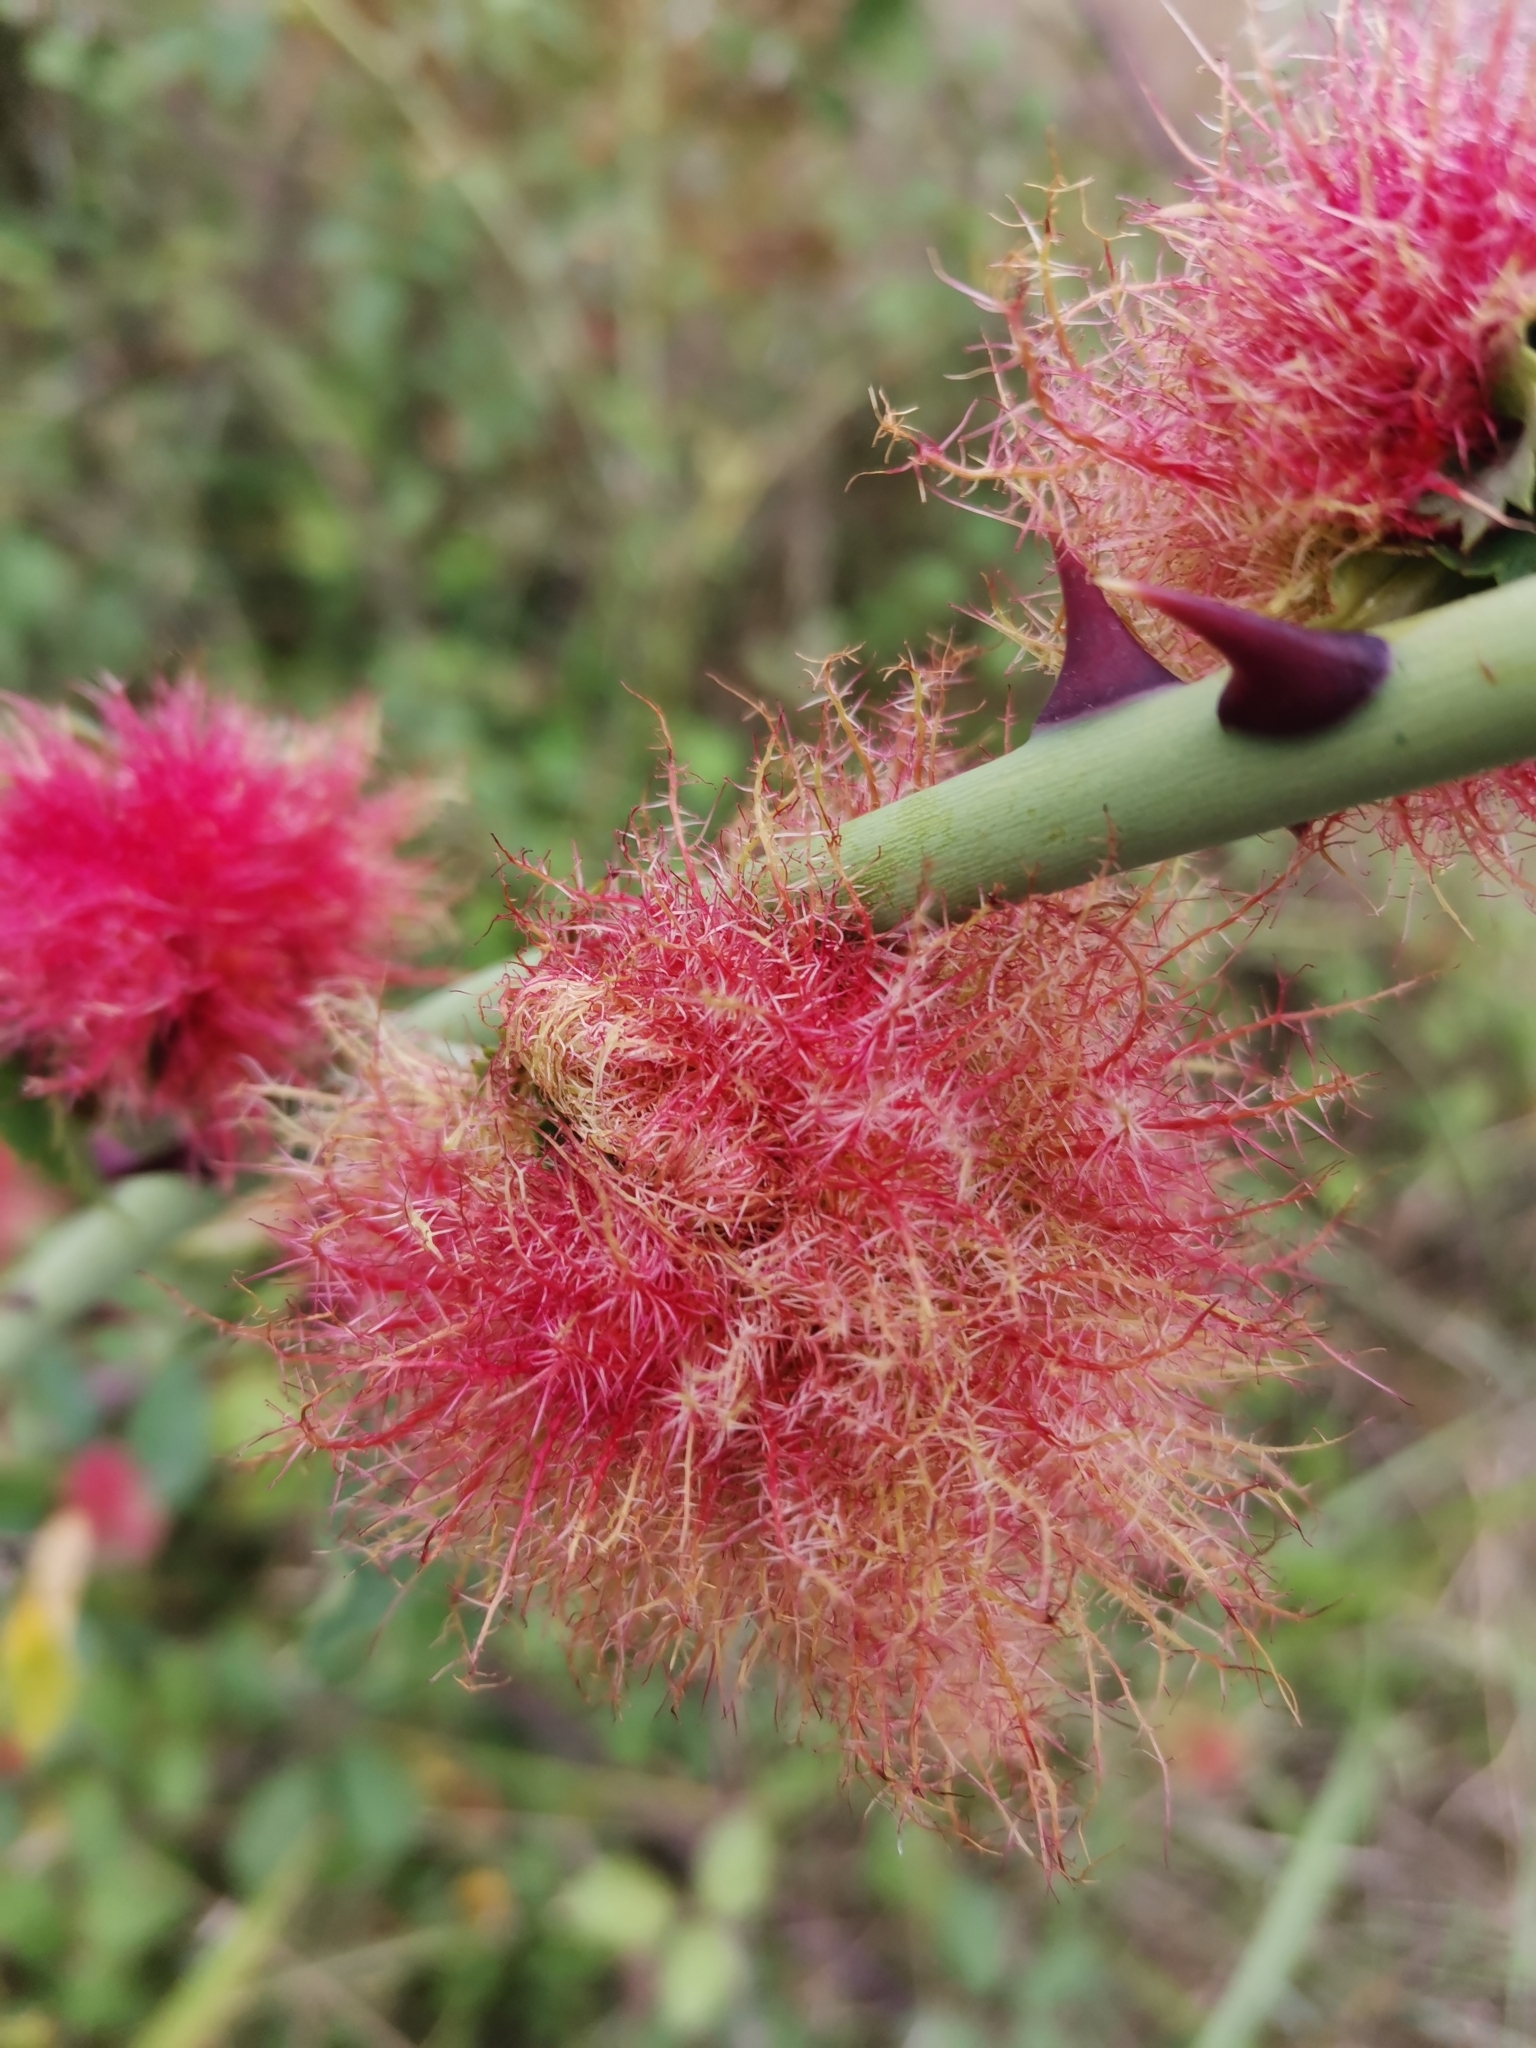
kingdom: Animalia
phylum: Arthropoda
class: Insecta
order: Hymenoptera
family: Cynipidae
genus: Diplolepis
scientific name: Diplolepis rosae
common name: Bedeguar gall
